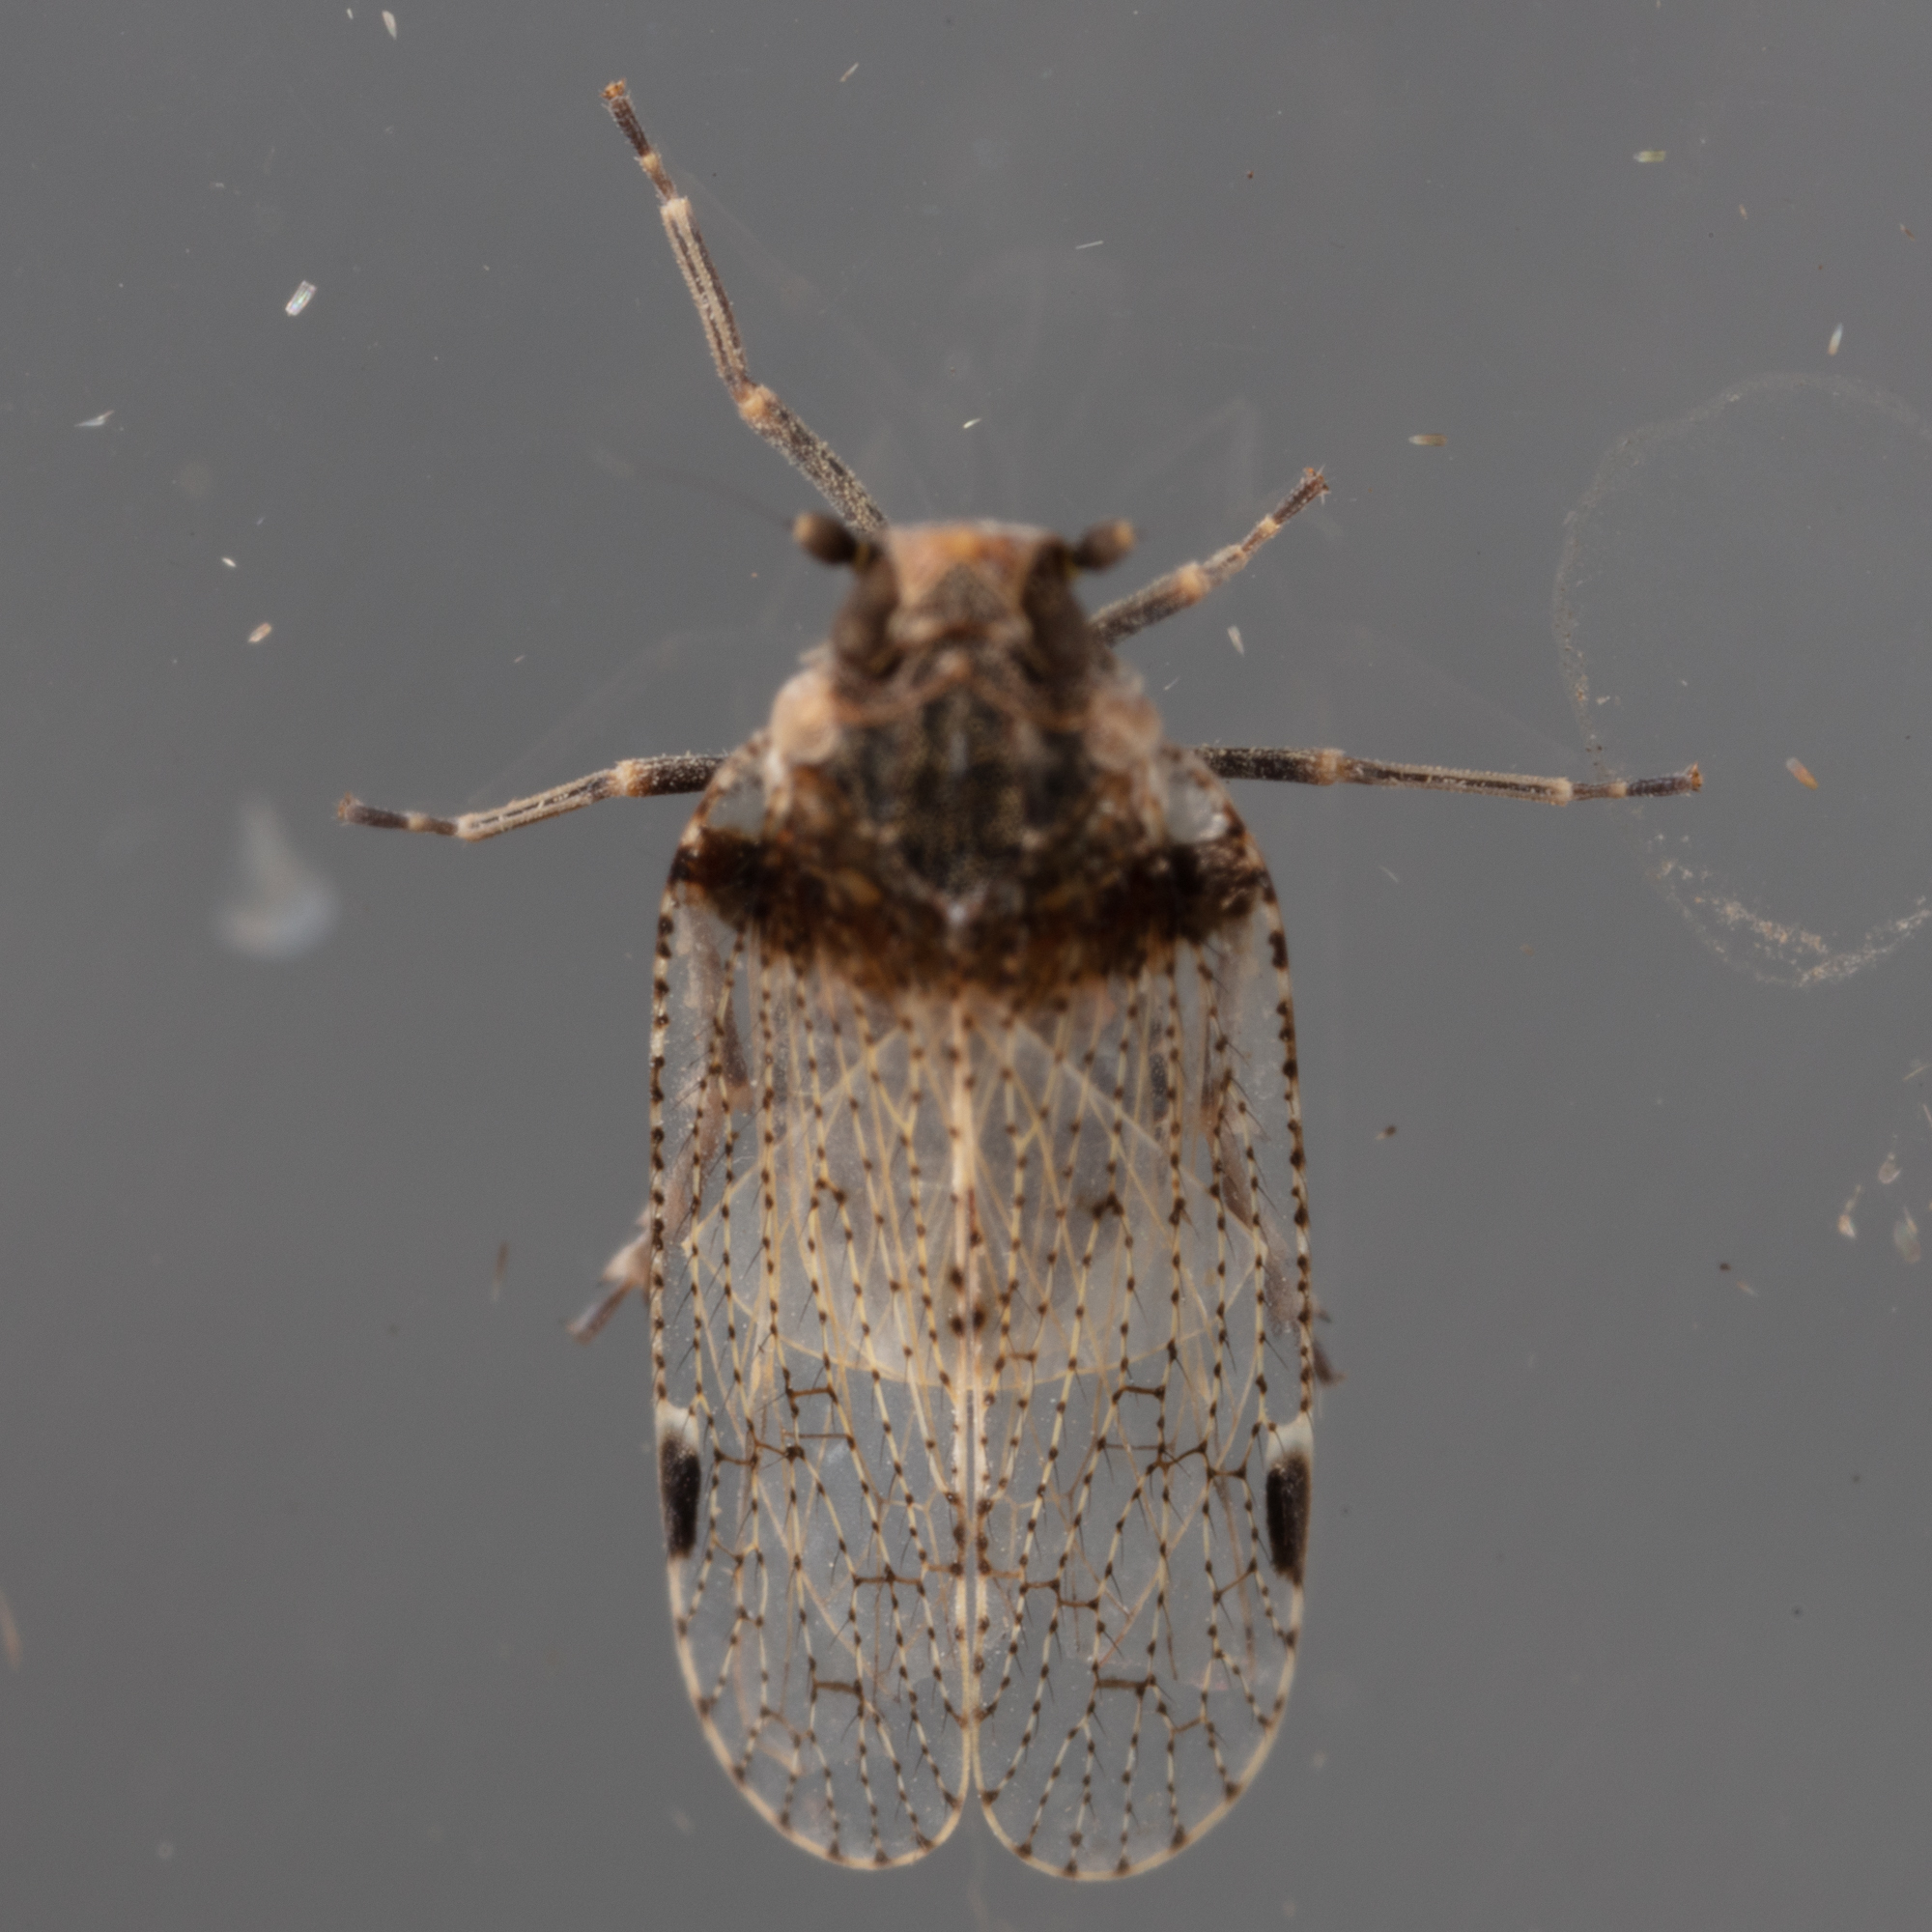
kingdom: Animalia
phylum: Arthropoda
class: Insecta
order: Hemiptera
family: Cixiidae
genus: Cixius
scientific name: Cixius stigmatus
